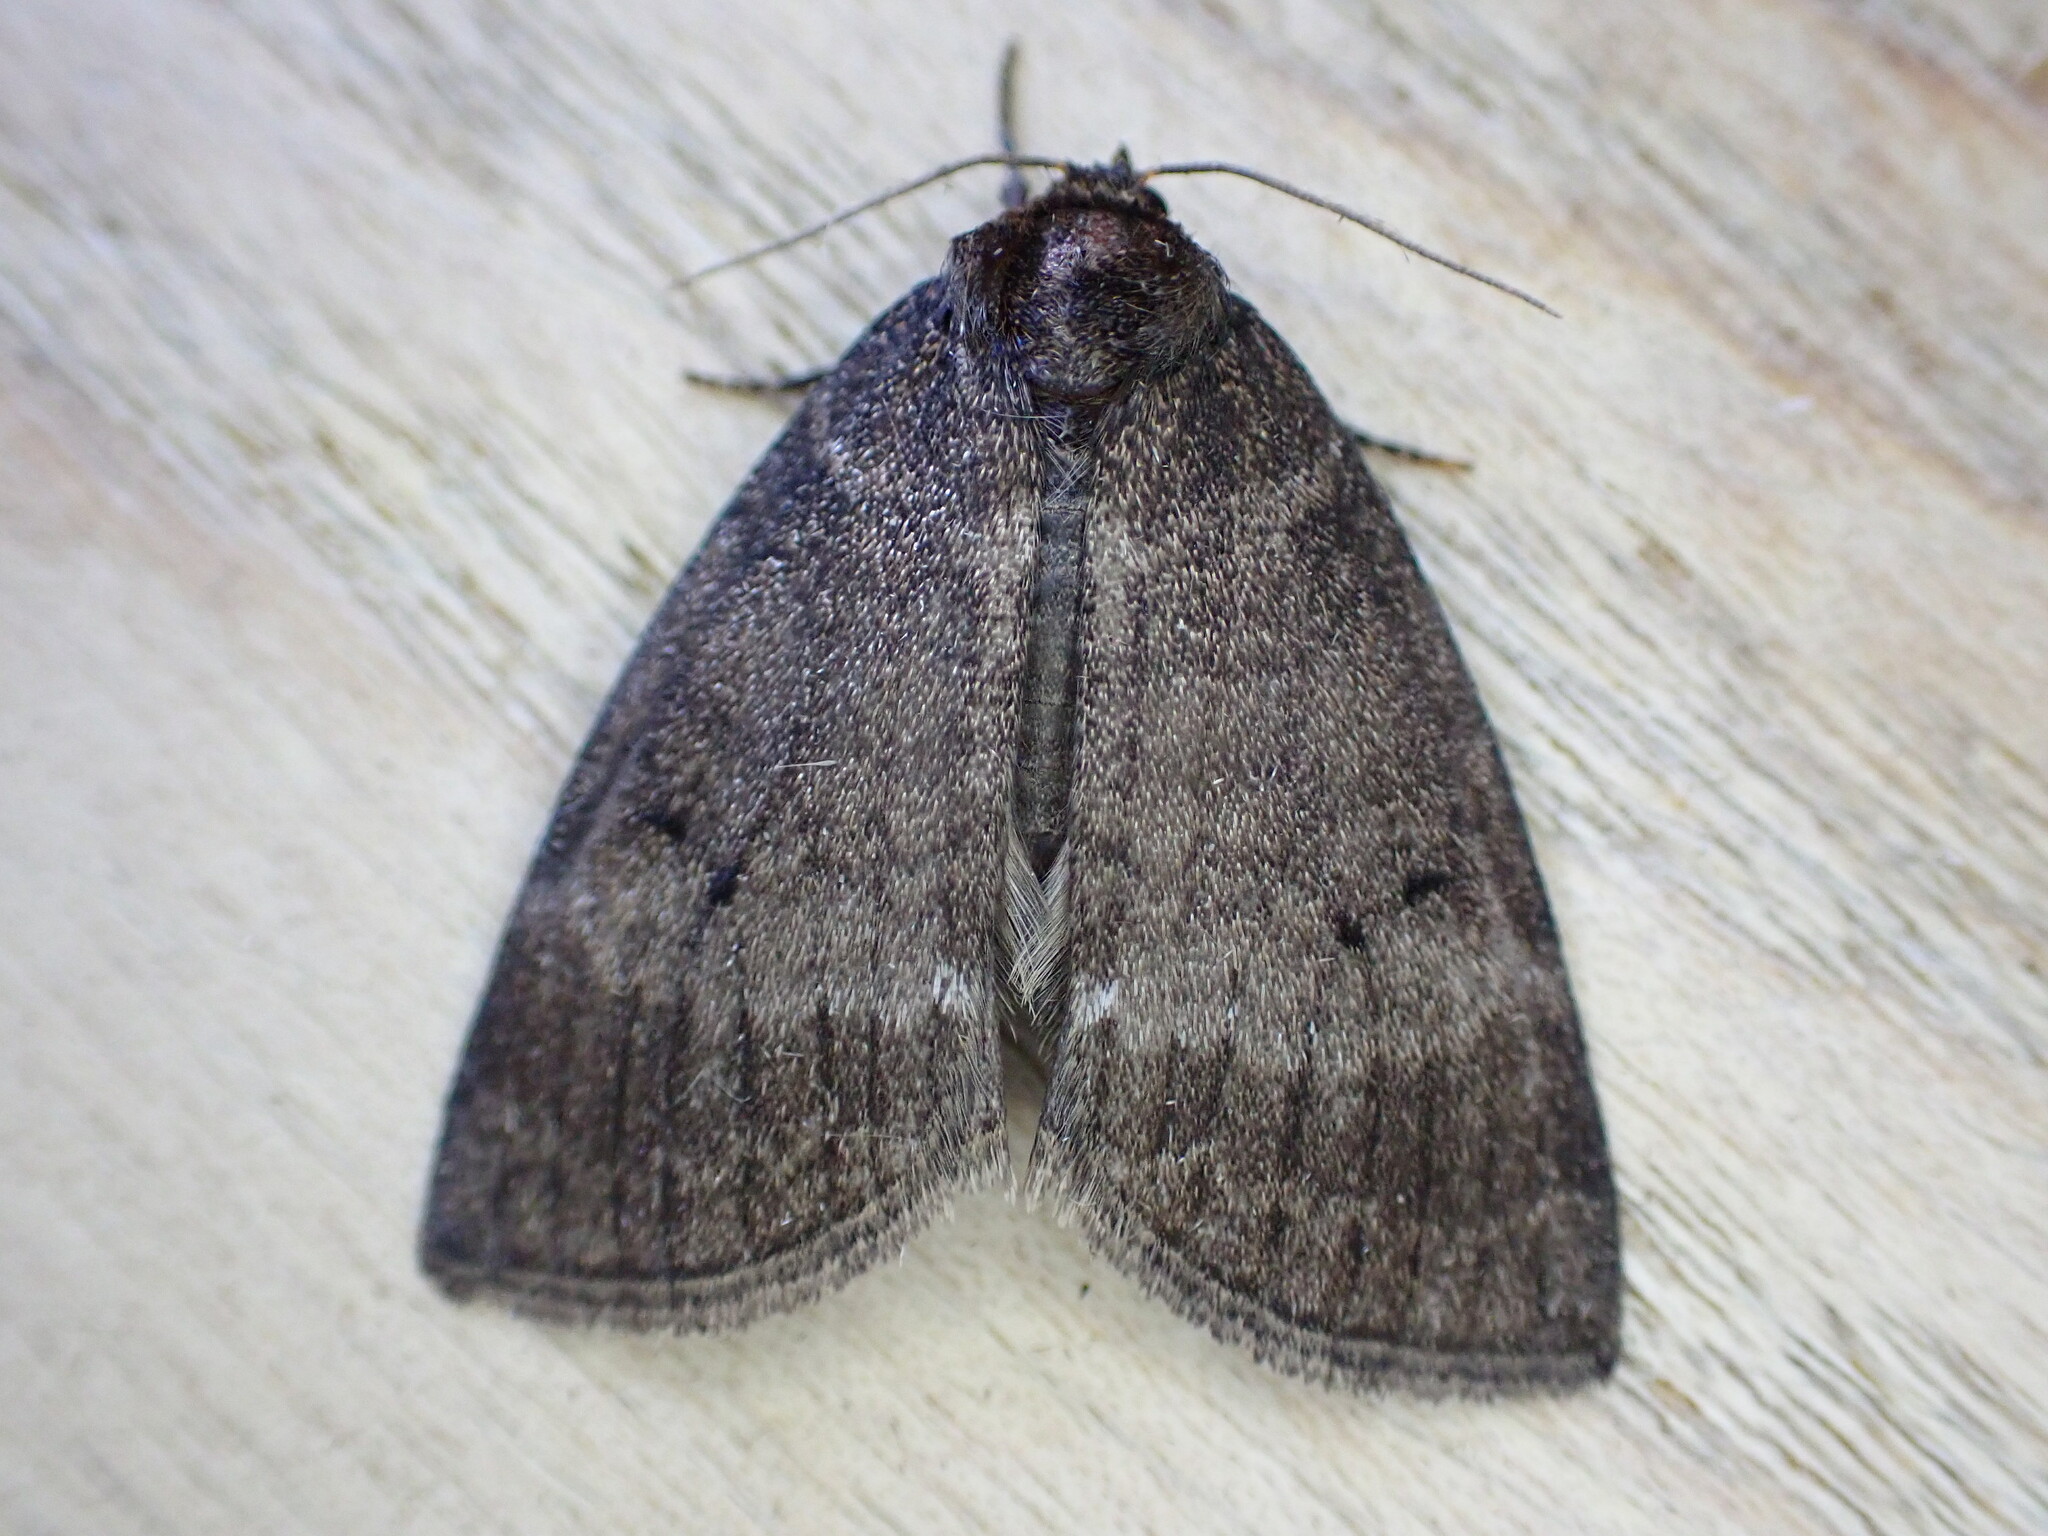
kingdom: Animalia
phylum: Arthropoda
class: Insecta
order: Lepidoptera
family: Drepanidae
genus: Ochropacha
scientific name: Ochropacha duplaris
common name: Common lutestring
